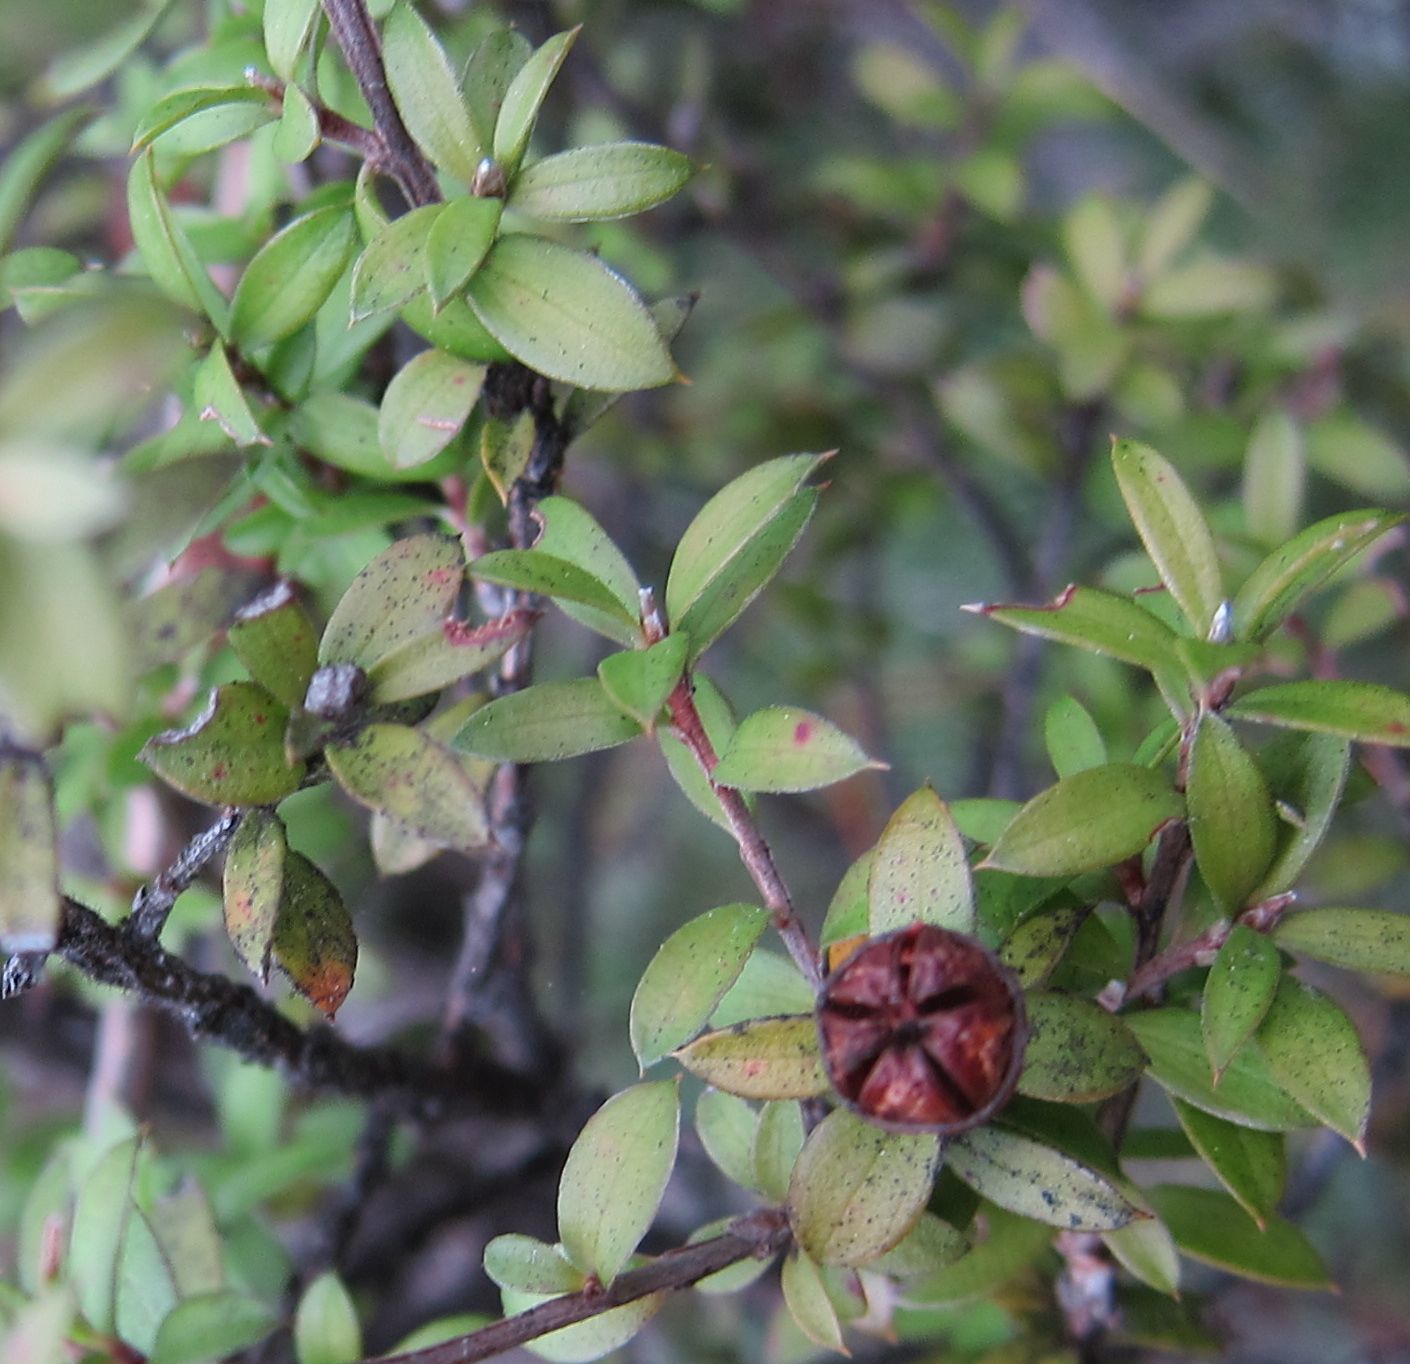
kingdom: Plantae
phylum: Tracheophyta
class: Magnoliopsida
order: Myrtales
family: Myrtaceae
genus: Leptospermum
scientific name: Leptospermum scoparium
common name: Broom tea-tree
